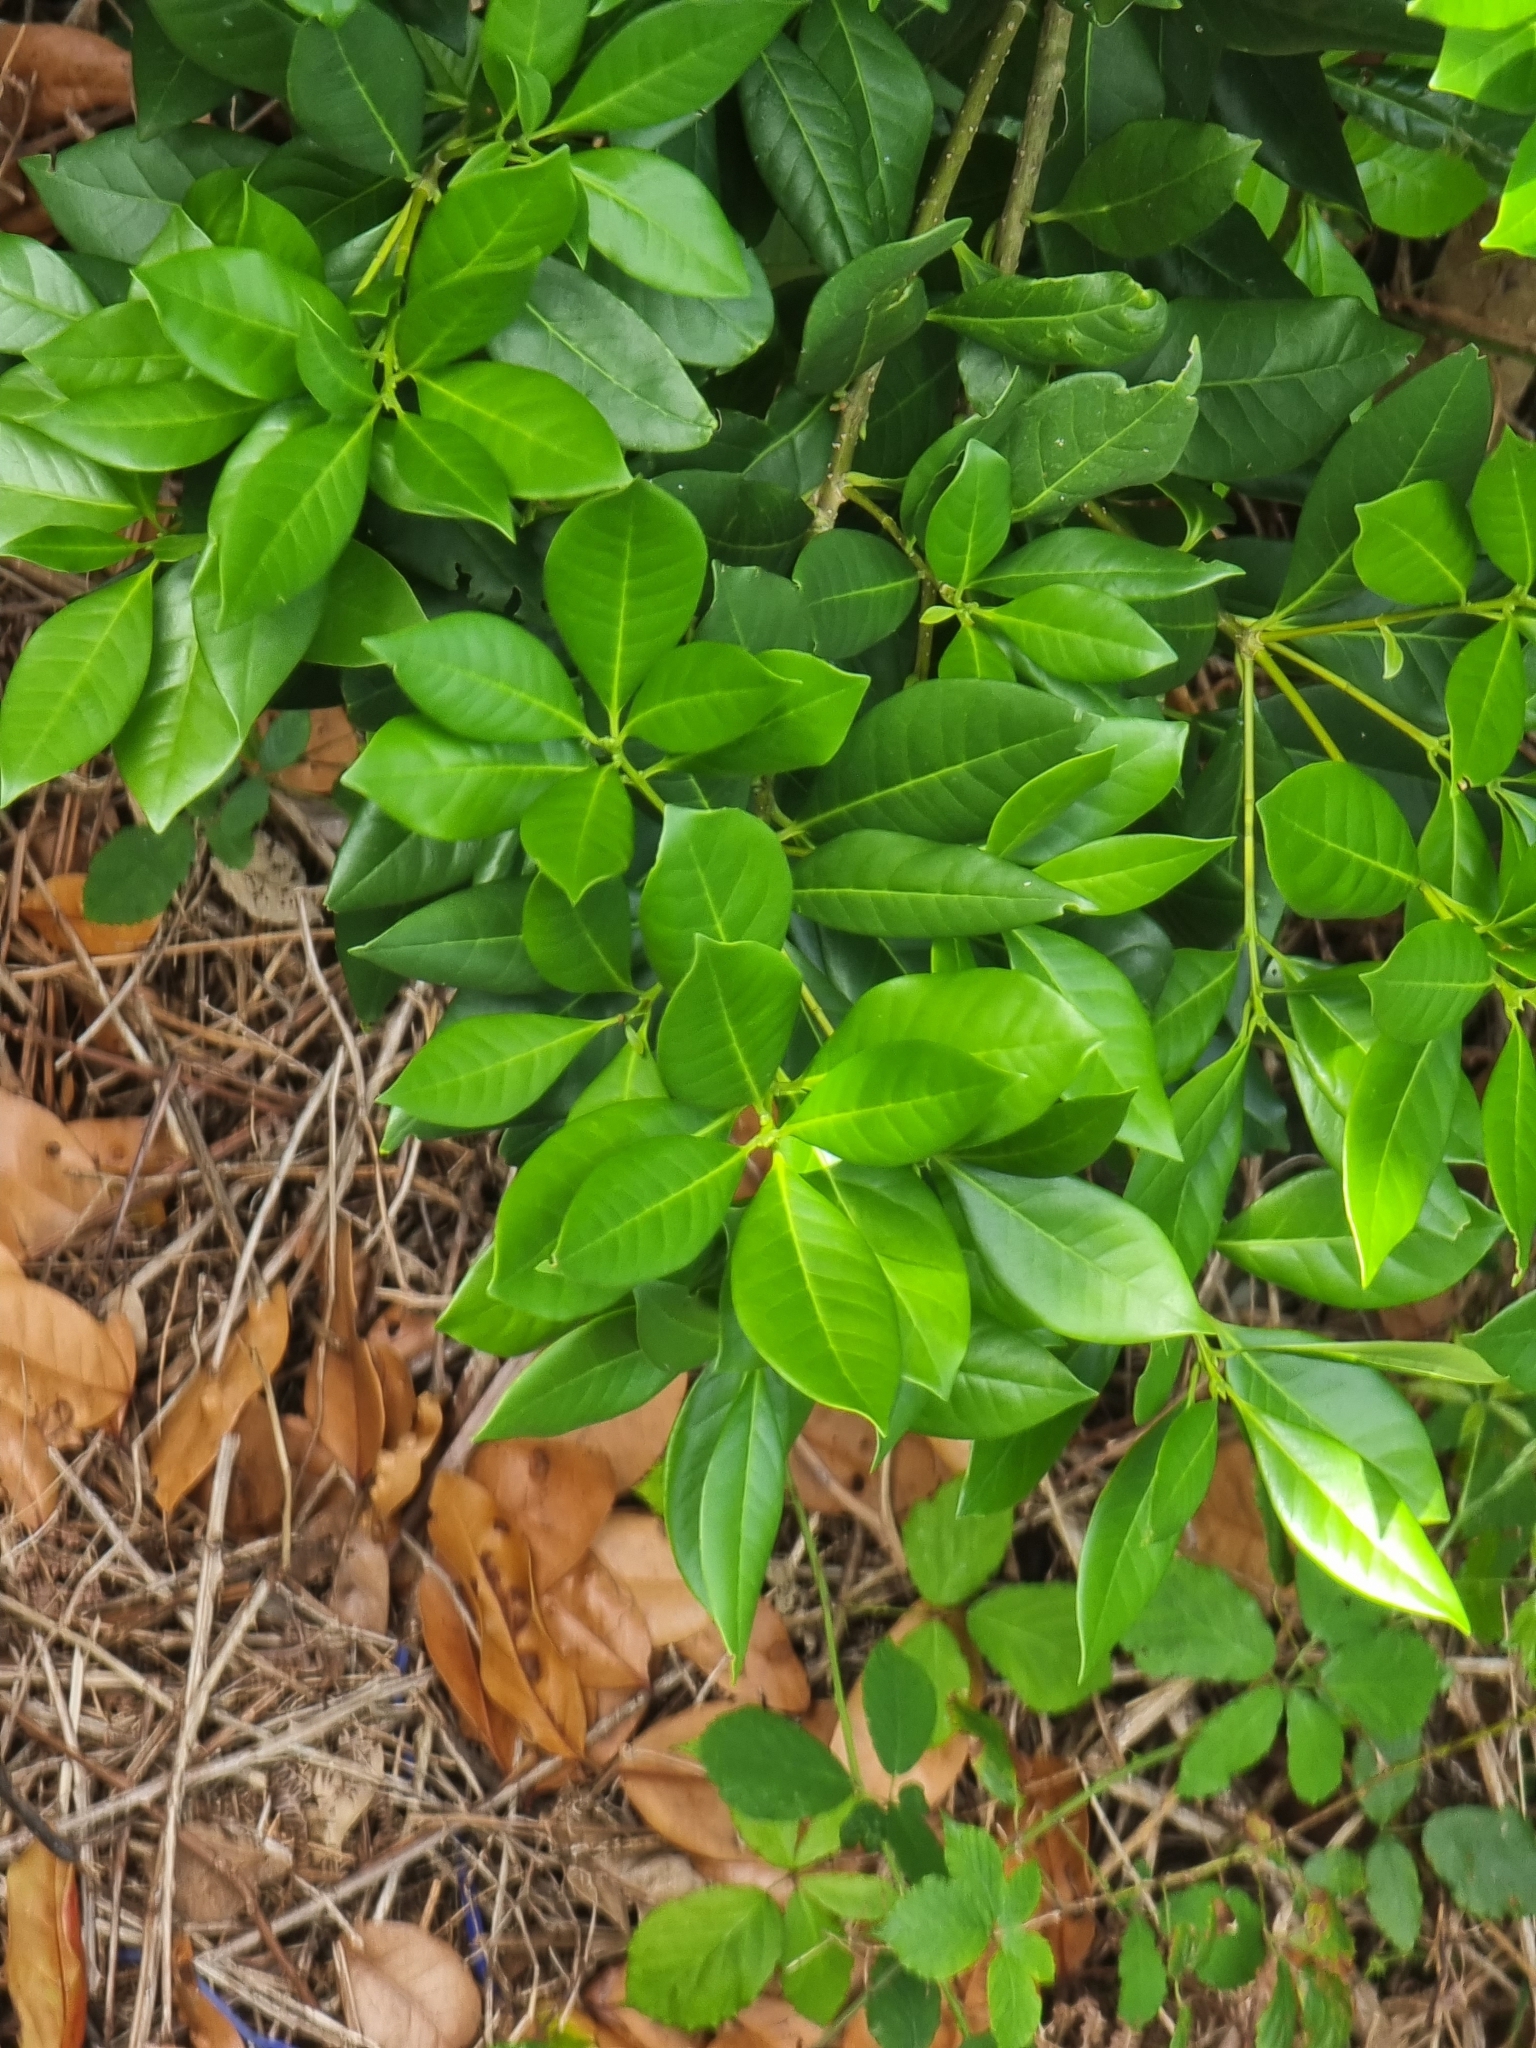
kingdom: Plantae
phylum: Tracheophyta
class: Magnoliopsida
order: Lamiales
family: Oleaceae
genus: Picconia
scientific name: Picconia excelsa
